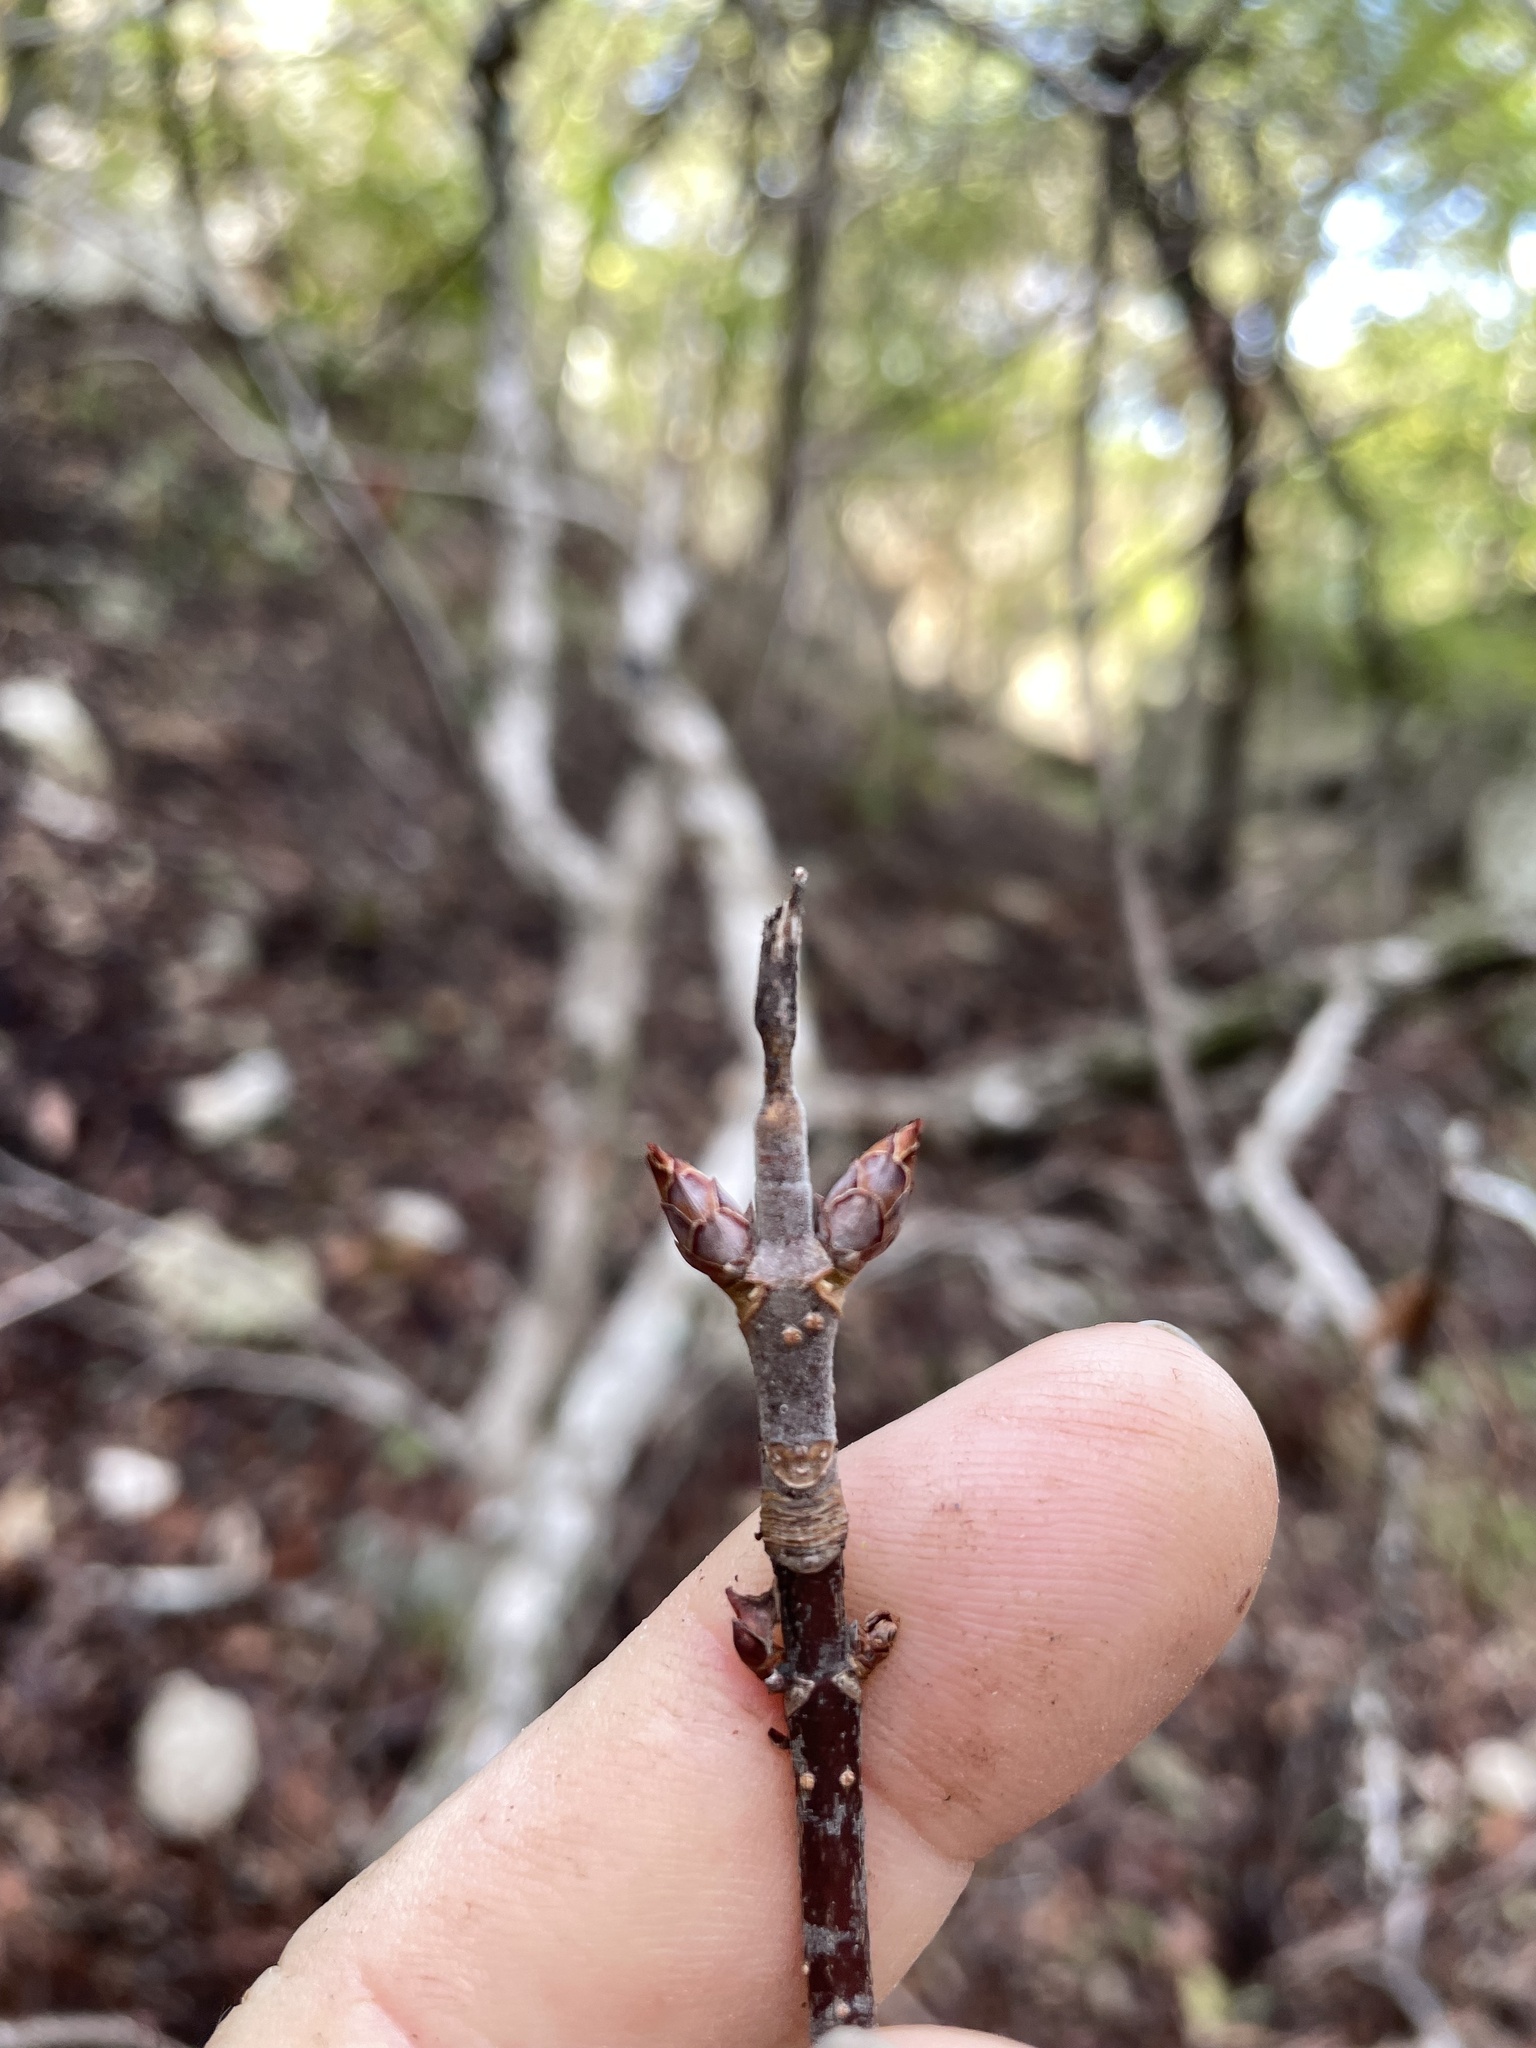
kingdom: Plantae
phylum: Tracheophyta
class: Magnoliopsida
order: Sapindales
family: Sapindaceae
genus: Aesculus
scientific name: Aesculus glabra
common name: Ohio buckeye
